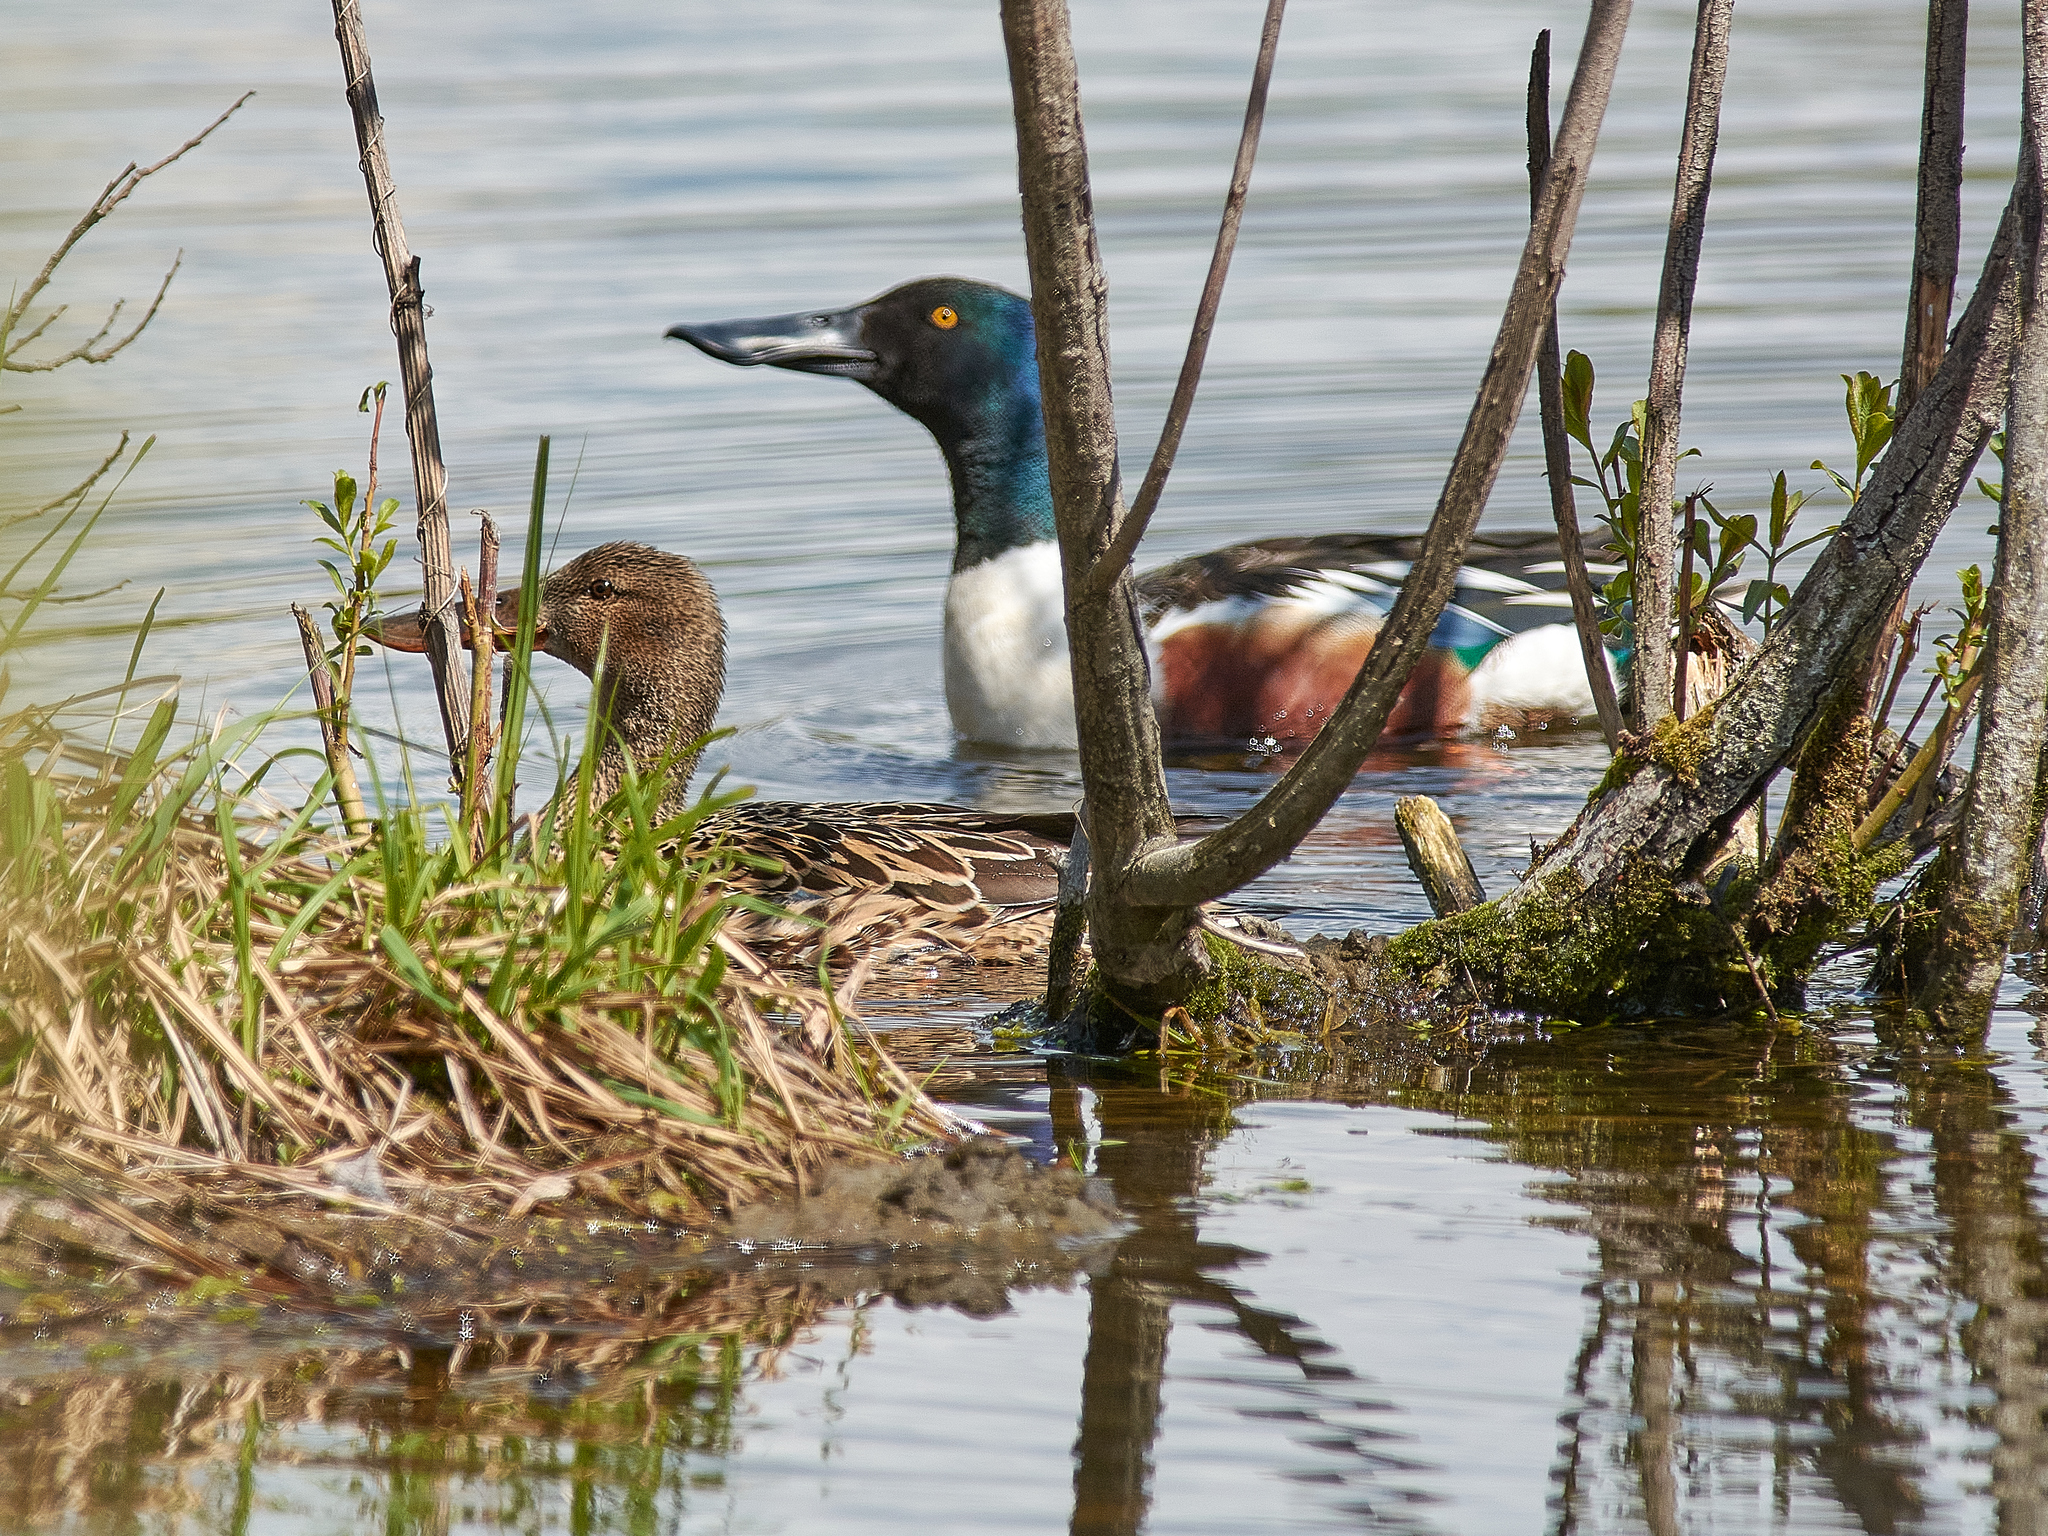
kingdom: Animalia
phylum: Chordata
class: Aves
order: Anseriformes
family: Anatidae
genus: Spatula
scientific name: Spatula clypeata
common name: Northern shoveler
